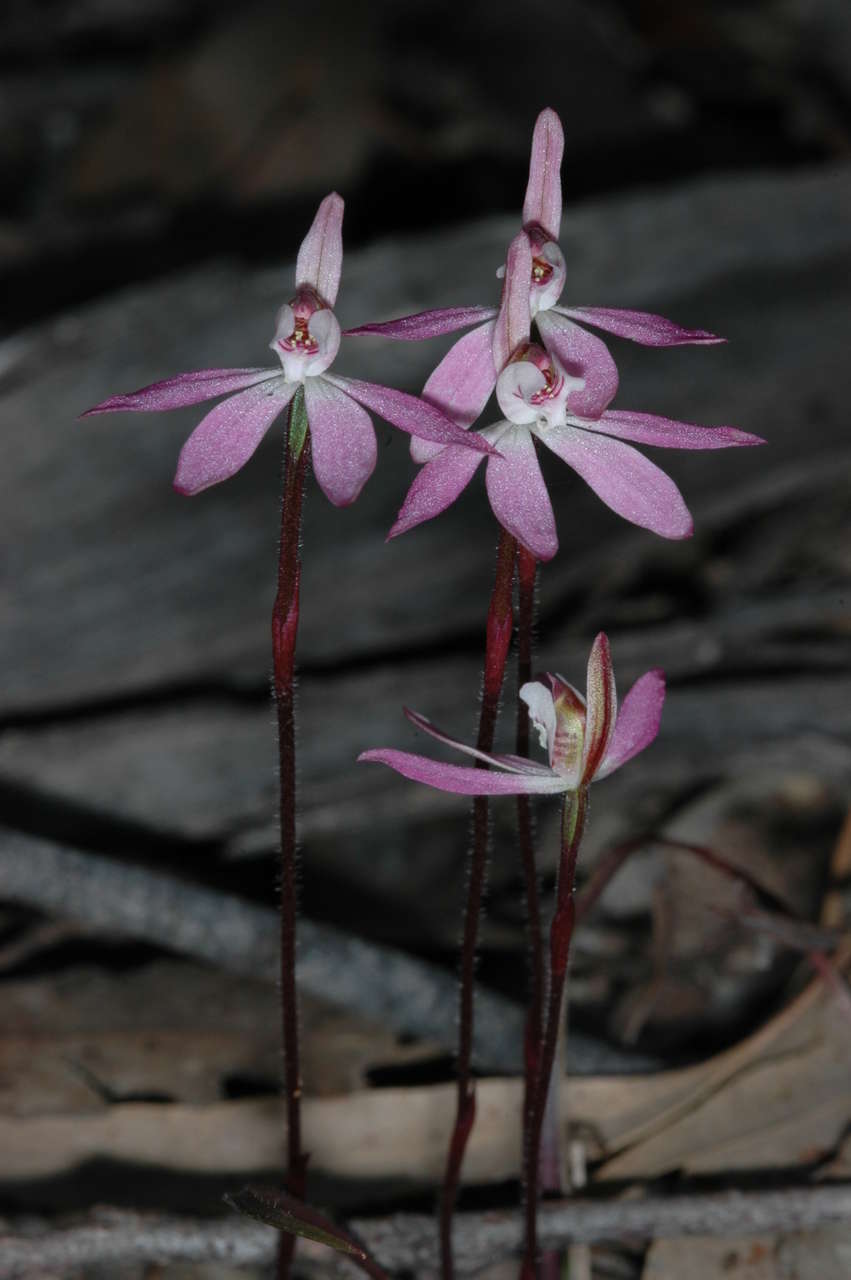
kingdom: Plantae
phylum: Tracheophyta
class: Liliopsida
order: Asparagales
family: Orchidaceae
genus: Caladenia
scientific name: Caladenia fuscata
